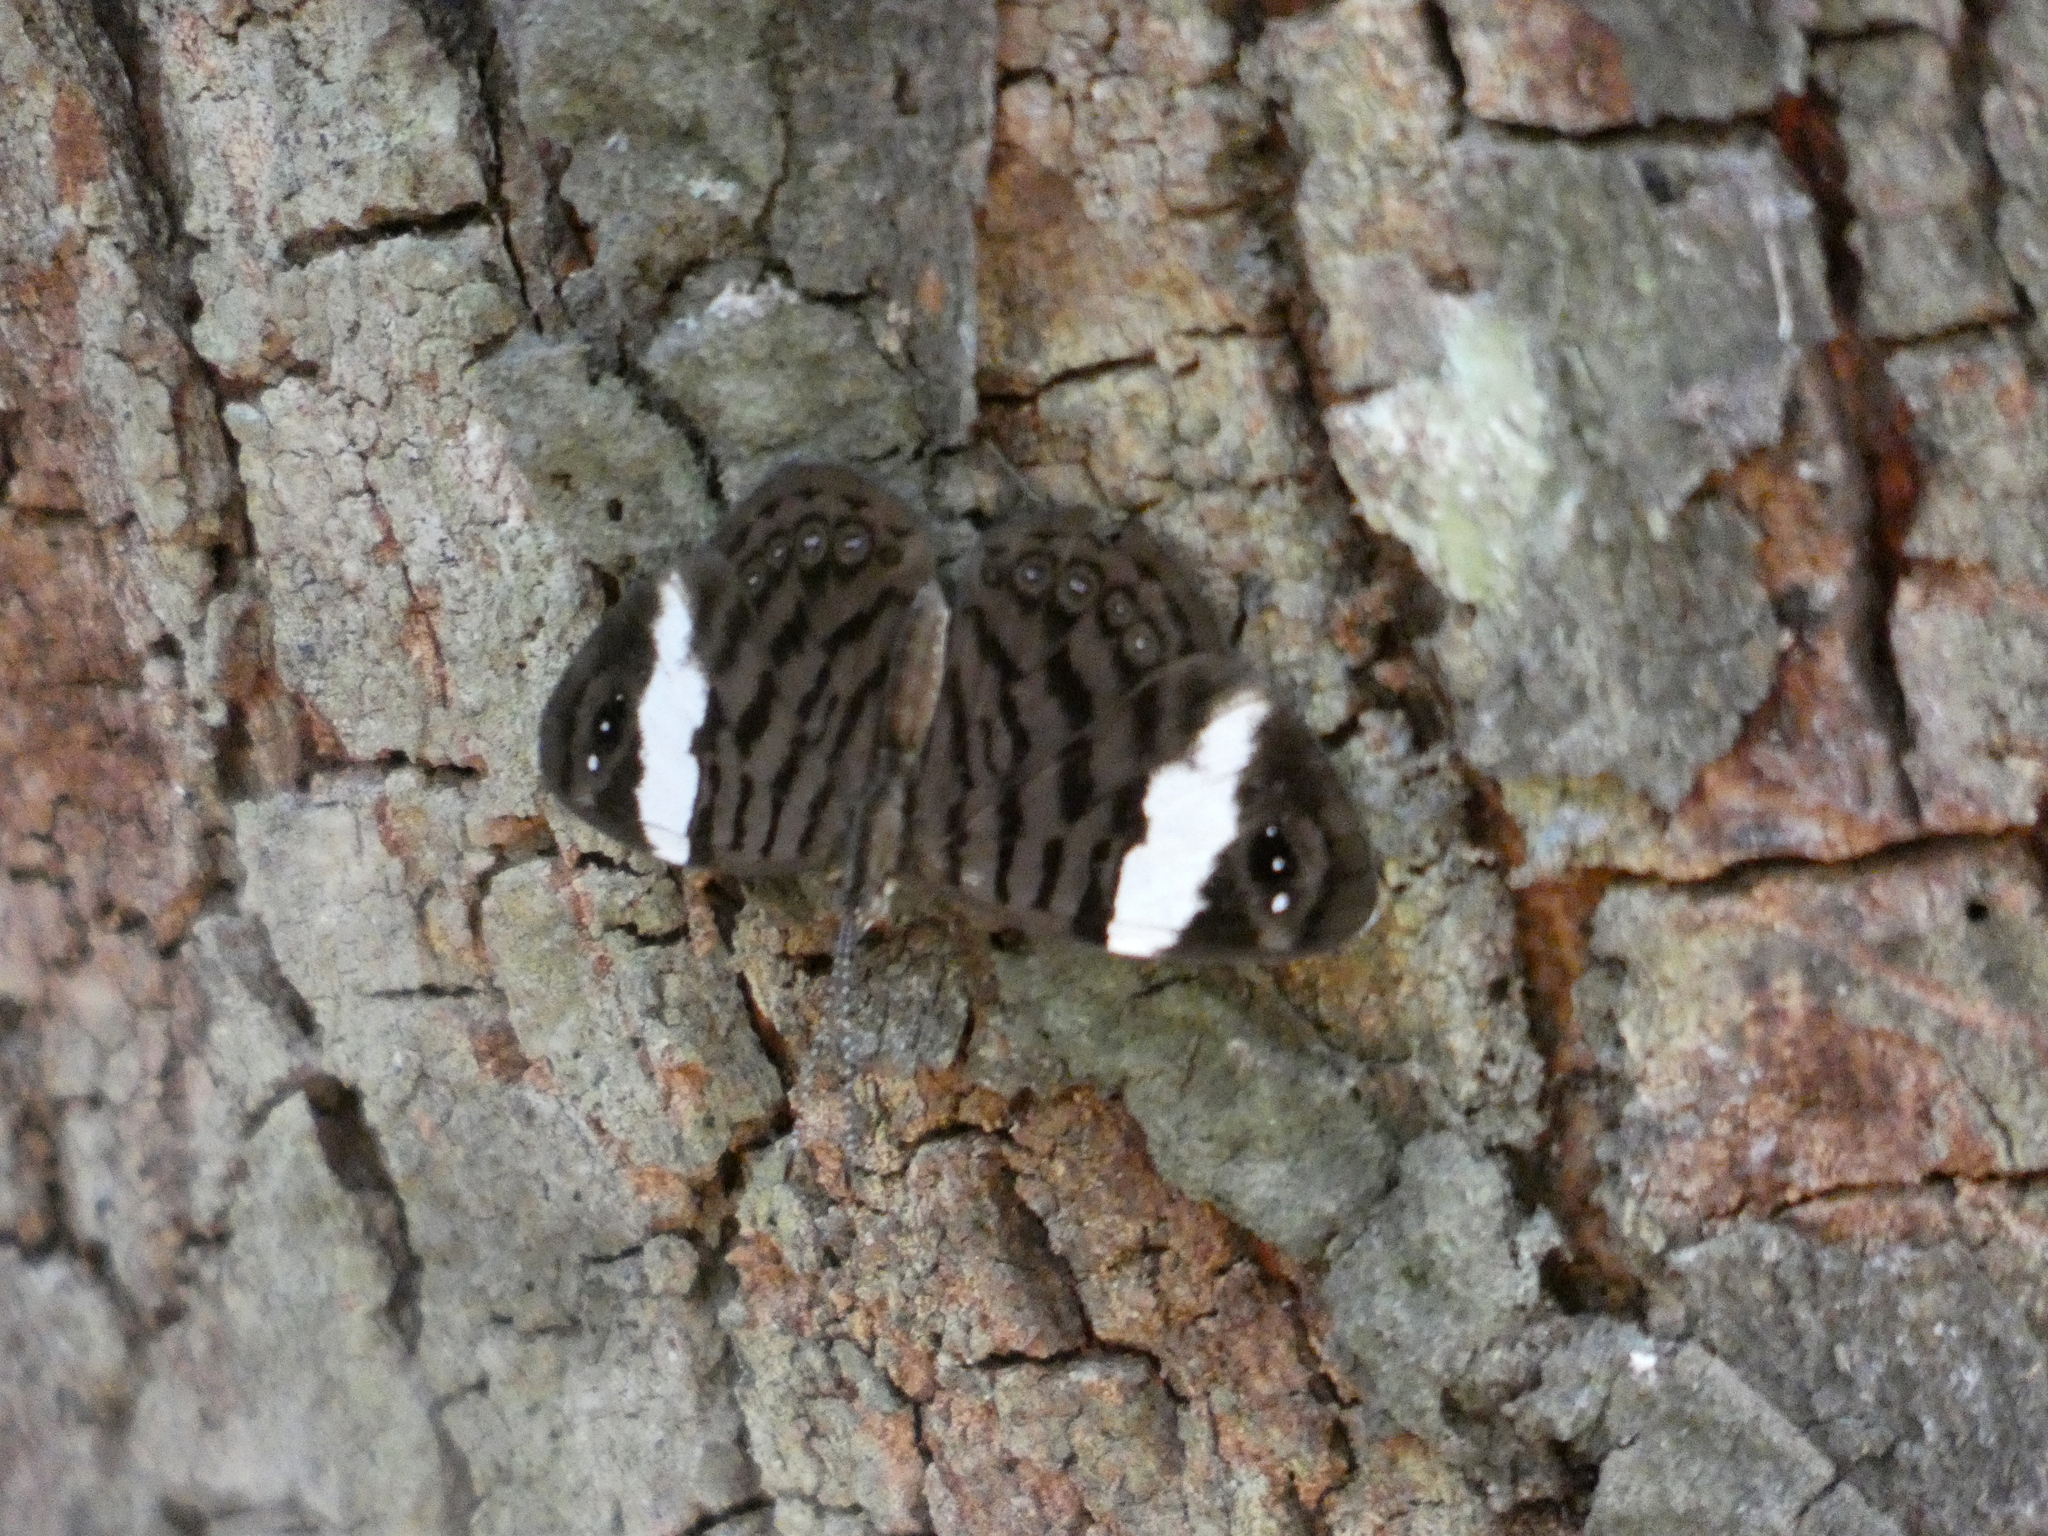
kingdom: Animalia
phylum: Arthropoda
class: Insecta
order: Lepidoptera
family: Nymphalidae
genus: Ectima
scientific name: Ectima thecla
